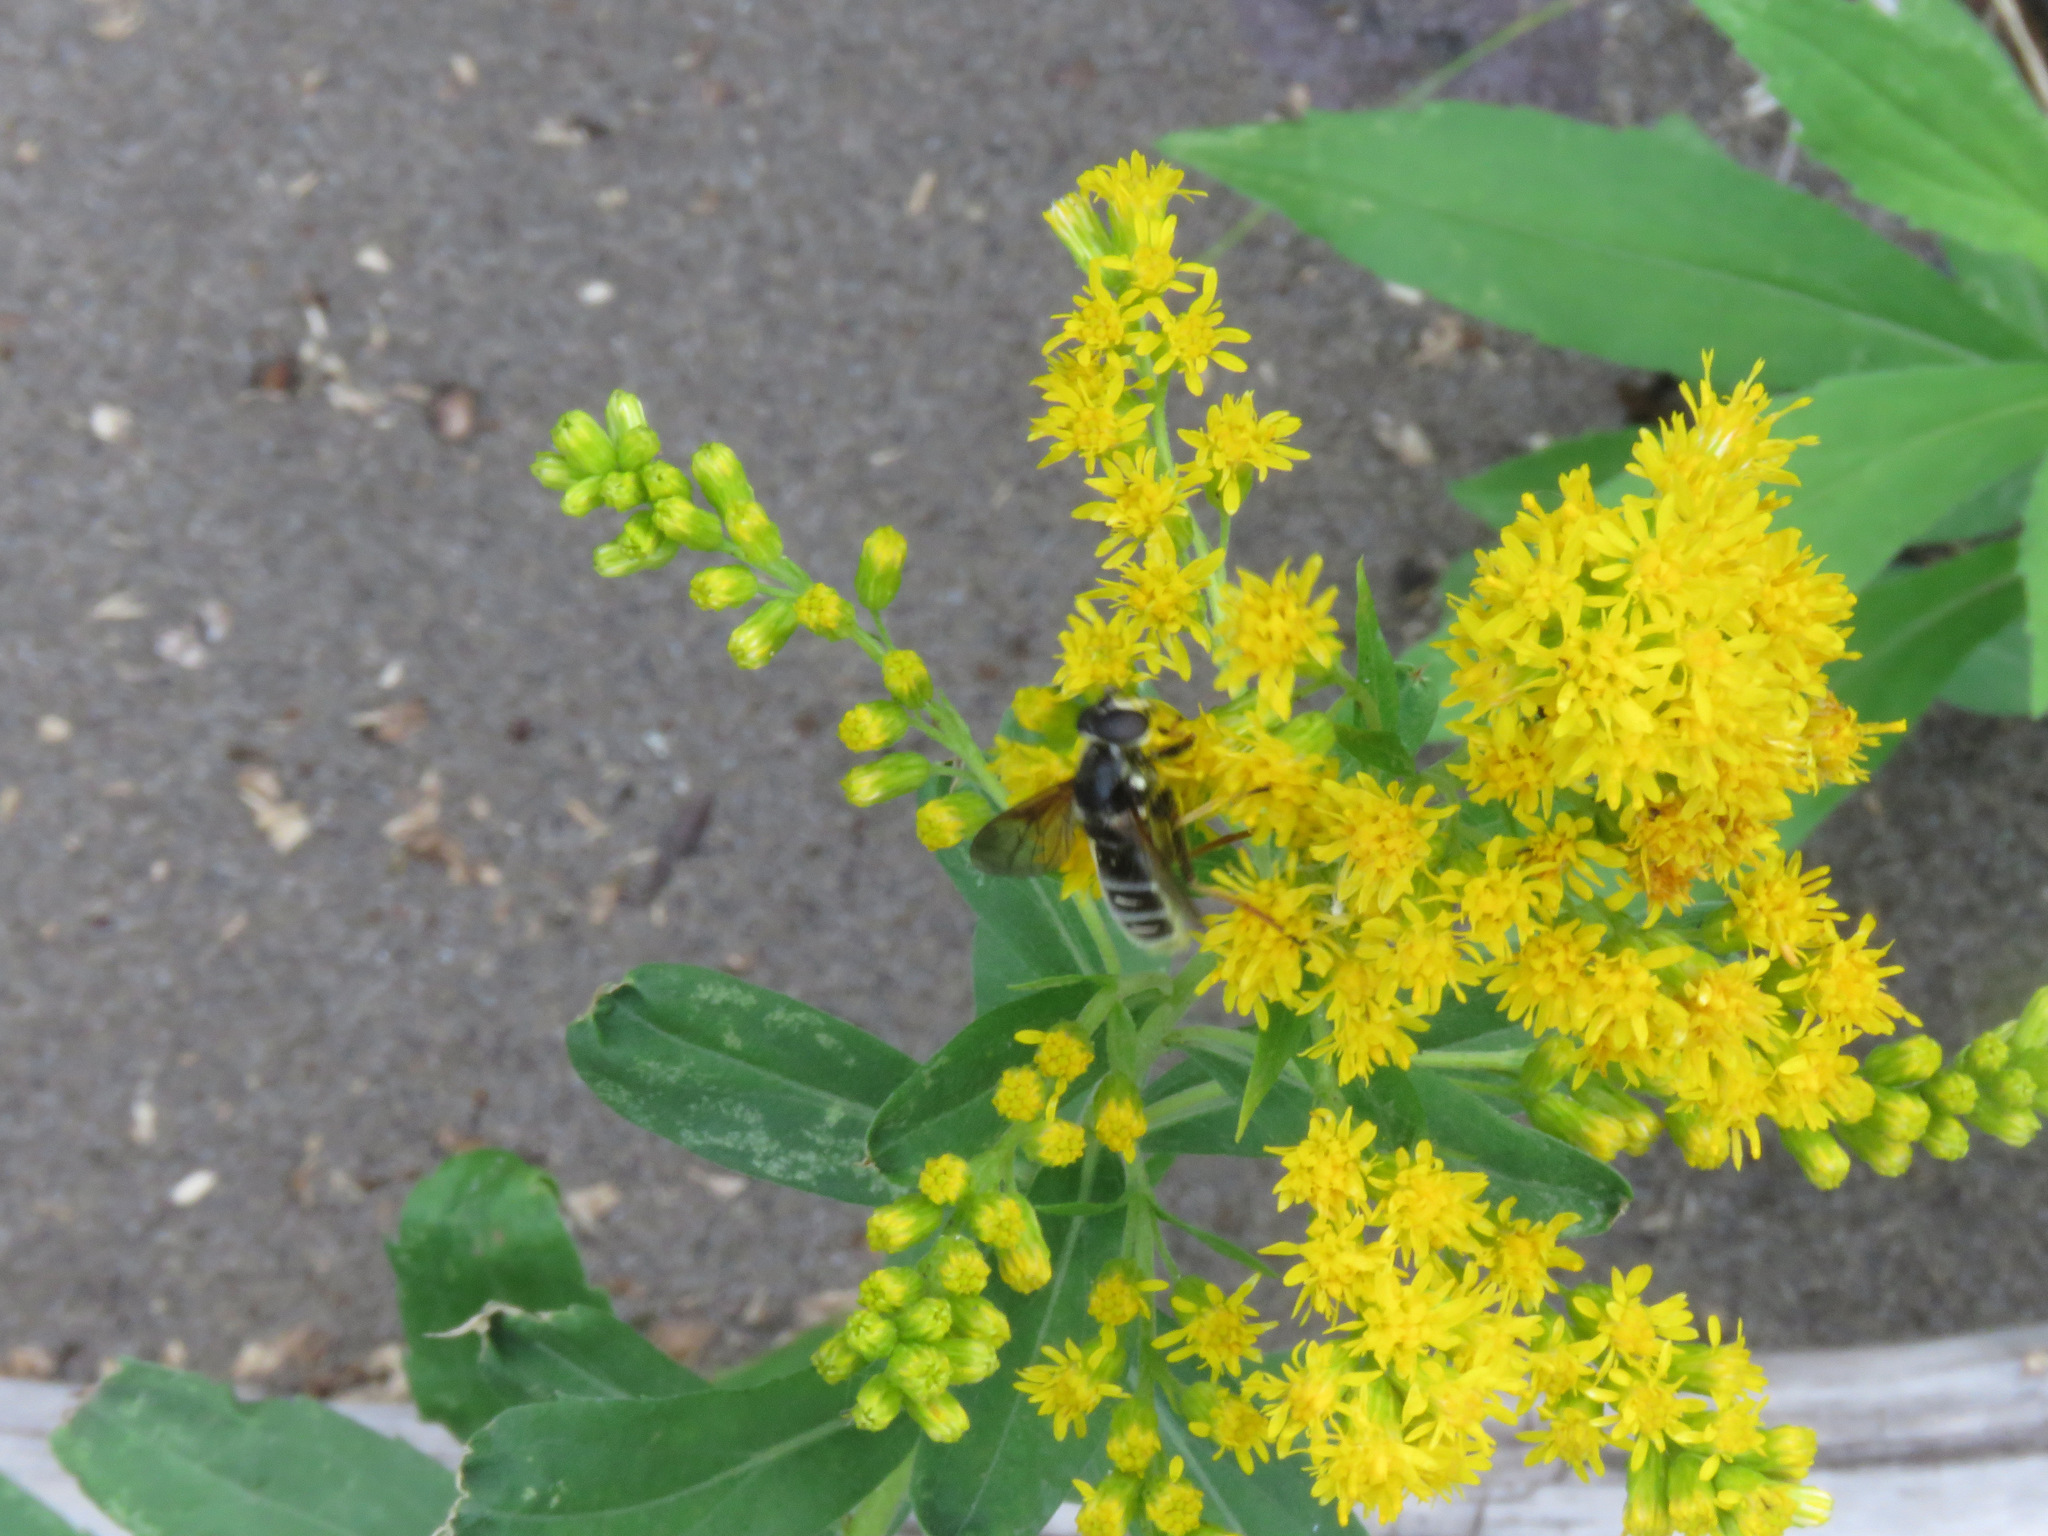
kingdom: Animalia
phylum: Arthropoda
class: Insecta
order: Diptera
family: Syrphidae
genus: Sericomyia
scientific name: Sericomyia militaris
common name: Narrow-banded pond fly
